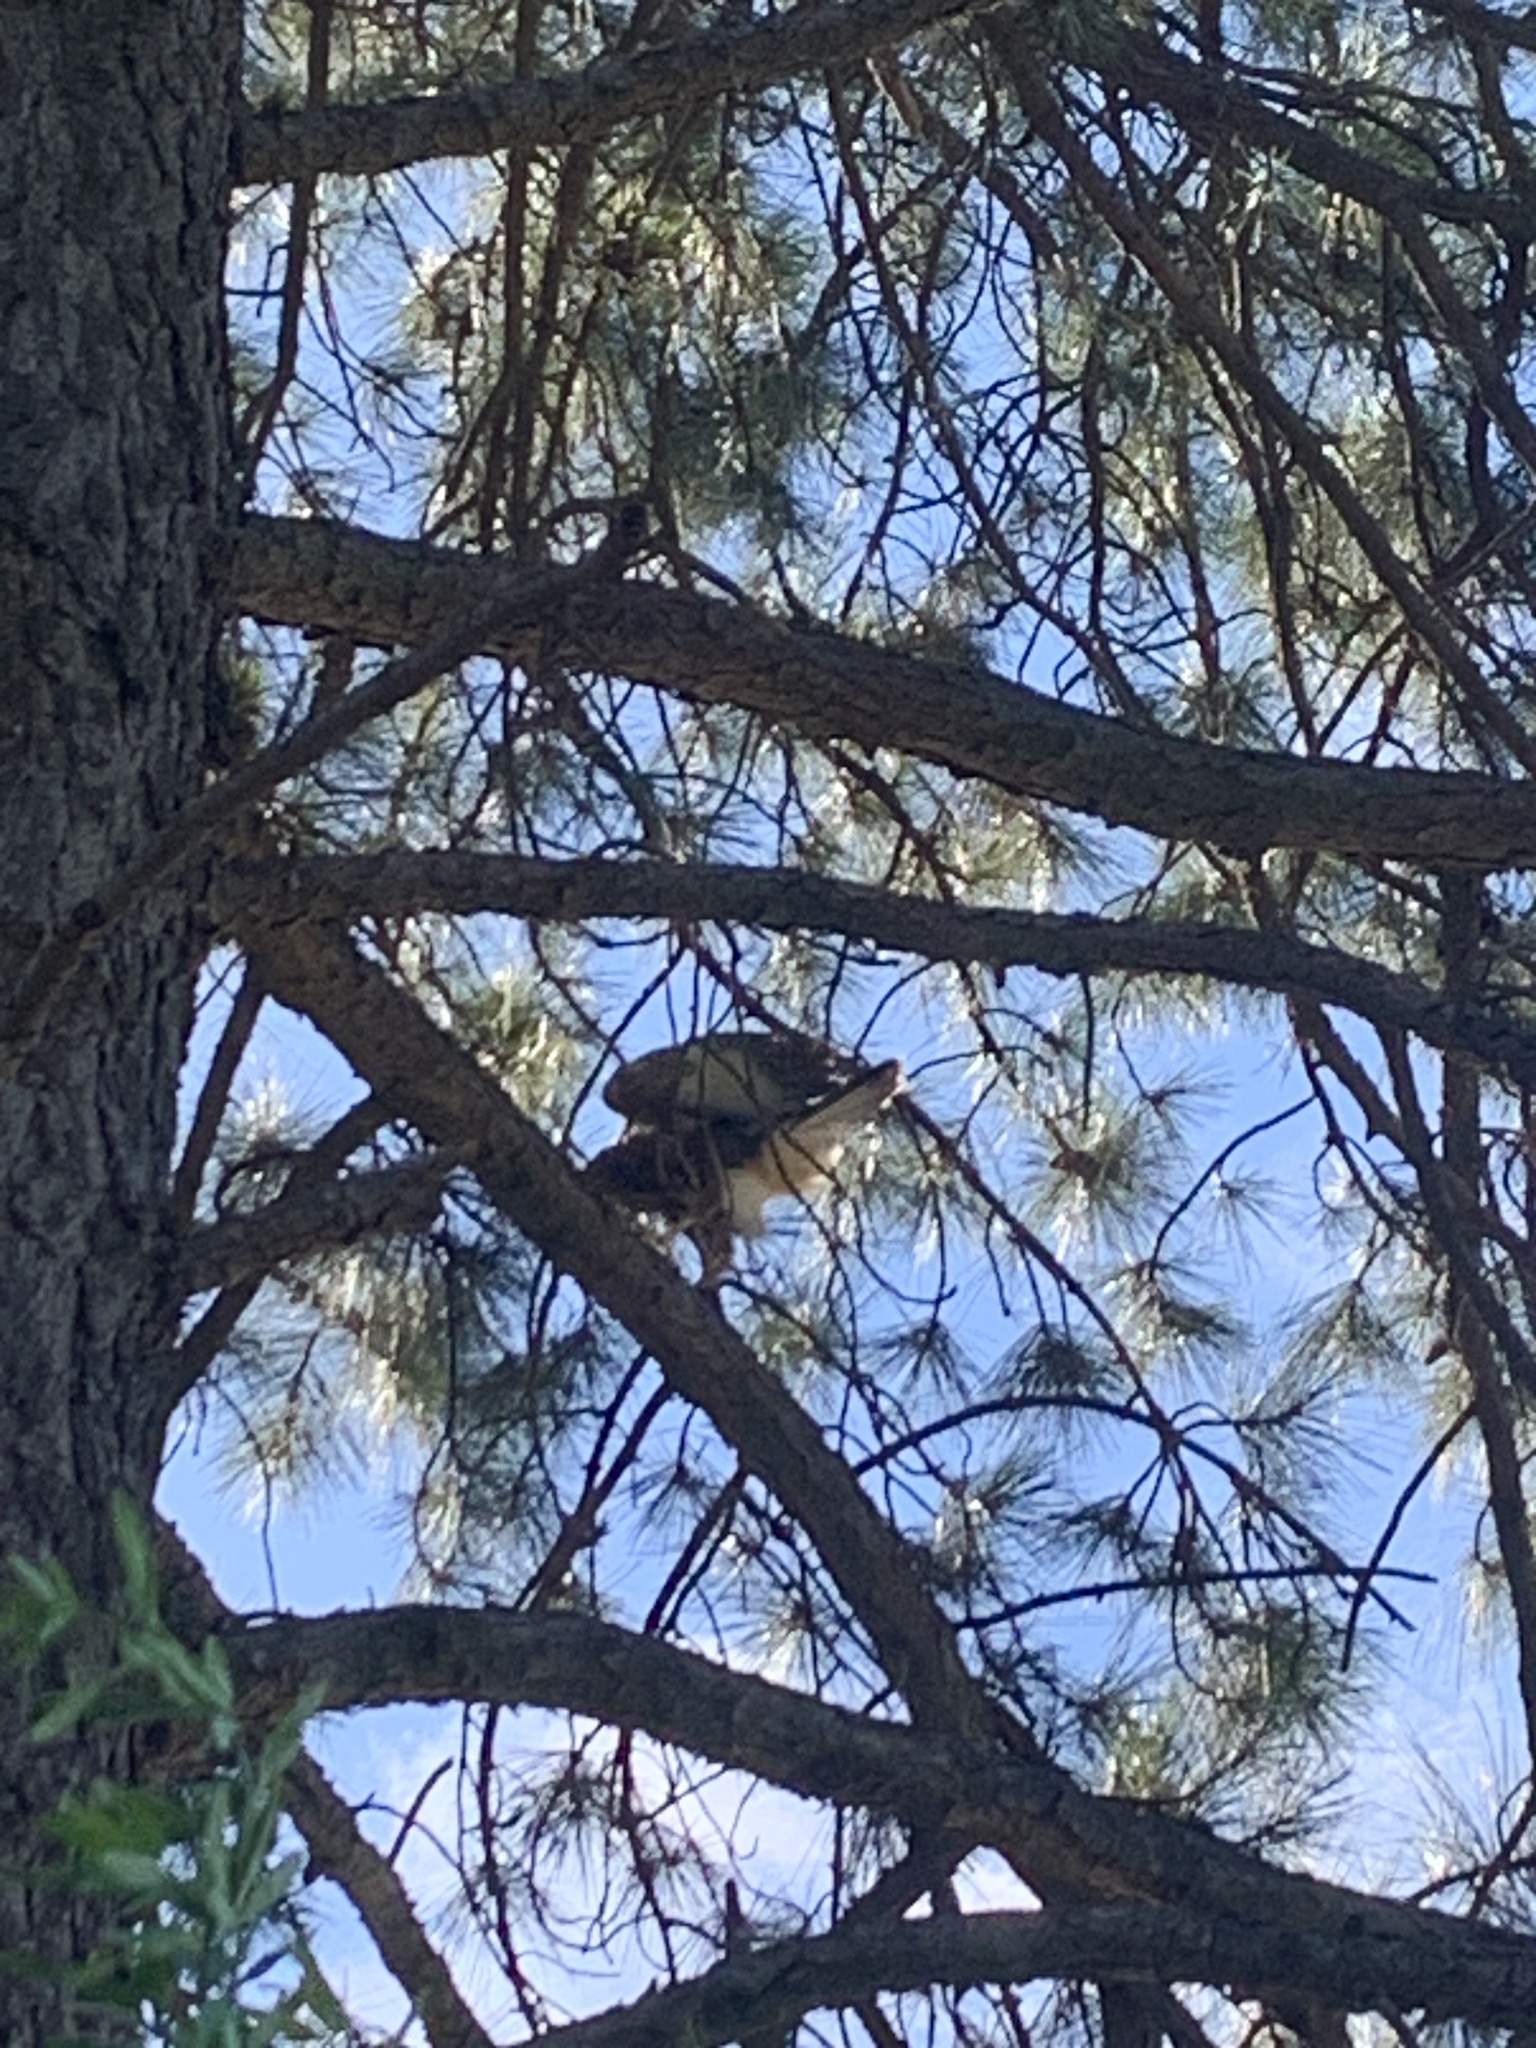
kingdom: Animalia
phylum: Chordata
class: Aves
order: Accipitriformes
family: Accipitridae
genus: Parabuteo
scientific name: Parabuteo unicinctus
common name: Harris's hawk
